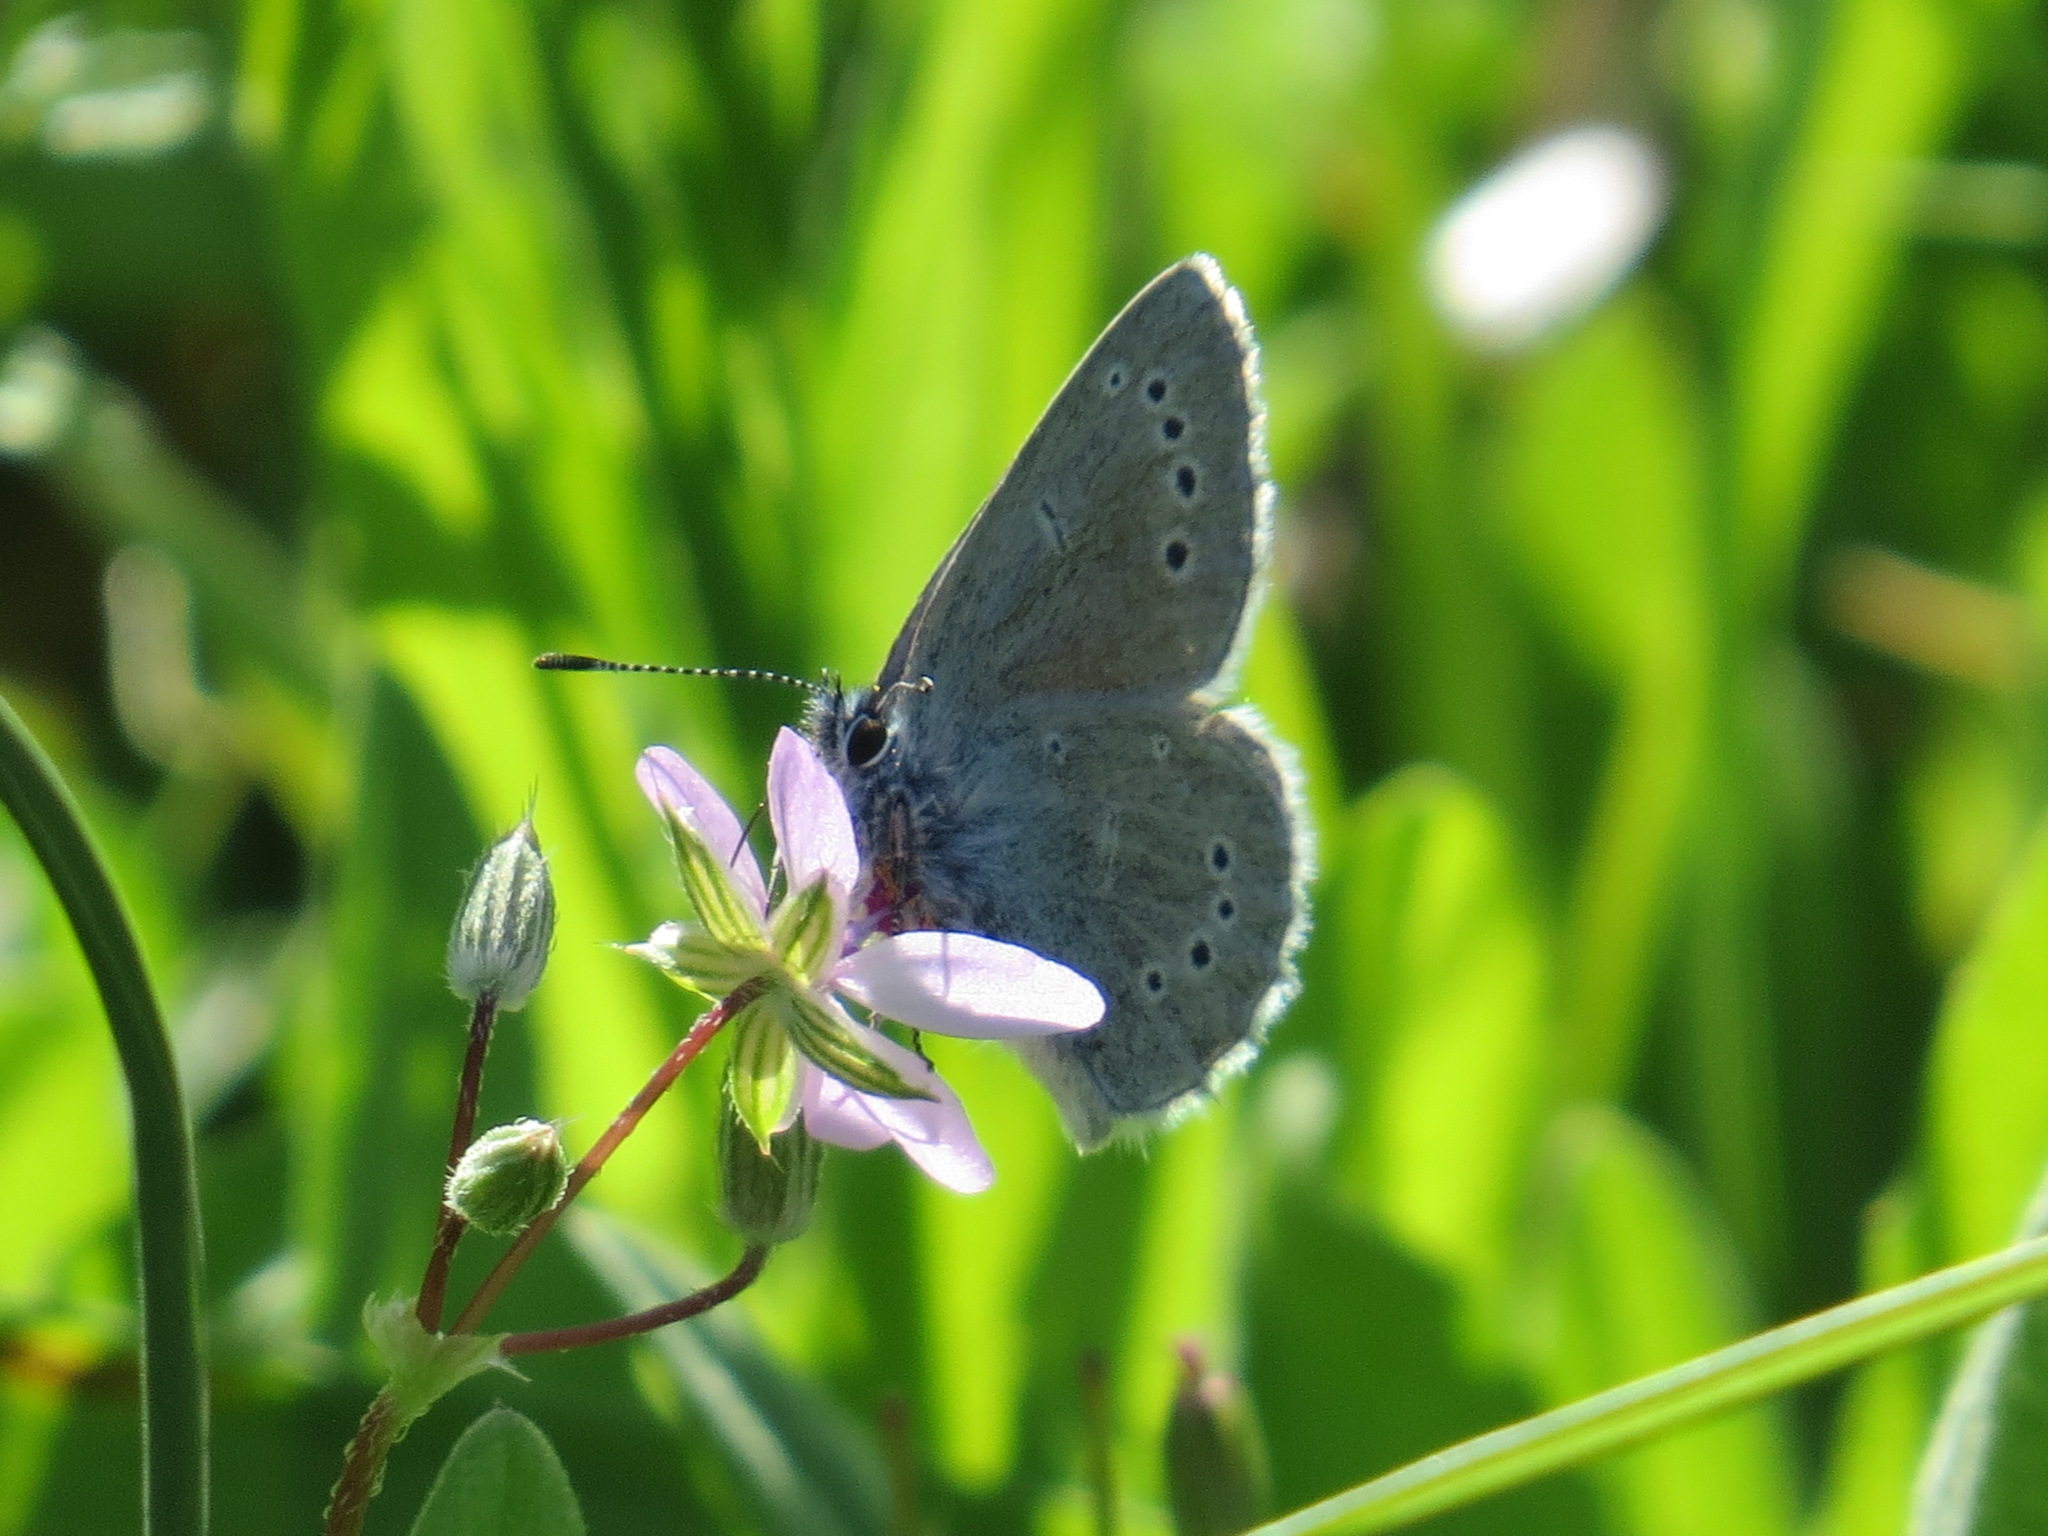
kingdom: Animalia
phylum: Arthropoda
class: Insecta
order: Lepidoptera
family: Lycaenidae
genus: Glaucopsyche
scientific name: Glaucopsyche lygdamus
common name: Silvery blue
